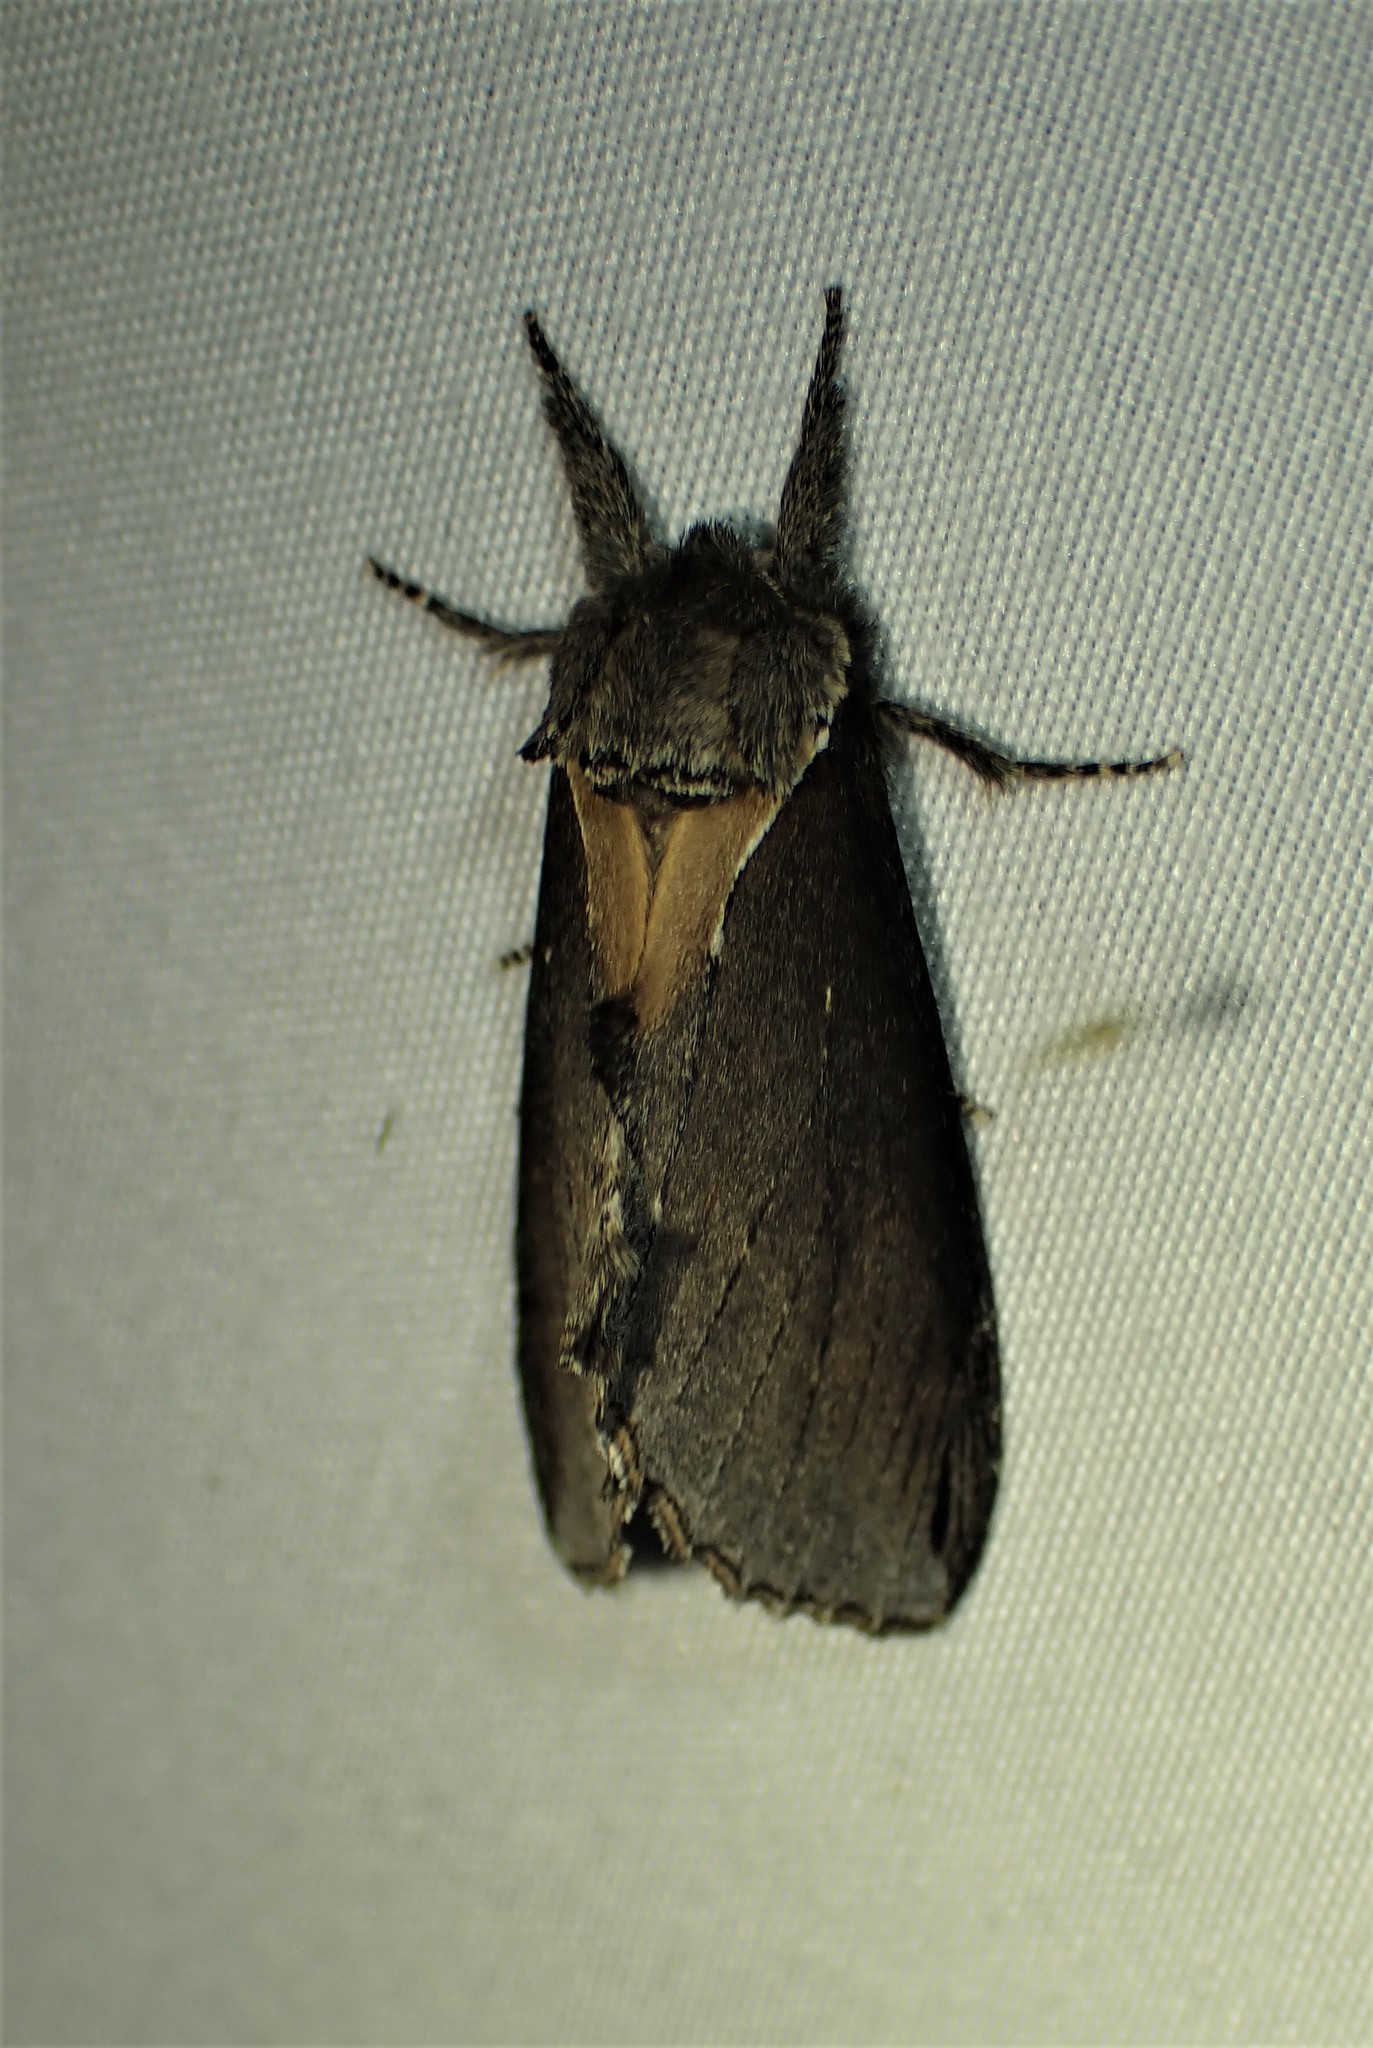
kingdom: Animalia
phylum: Arthropoda
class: Insecta
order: Lepidoptera
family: Notodontidae
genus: Pheosidea
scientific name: Pheosidea elegans
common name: Elegant prominent
